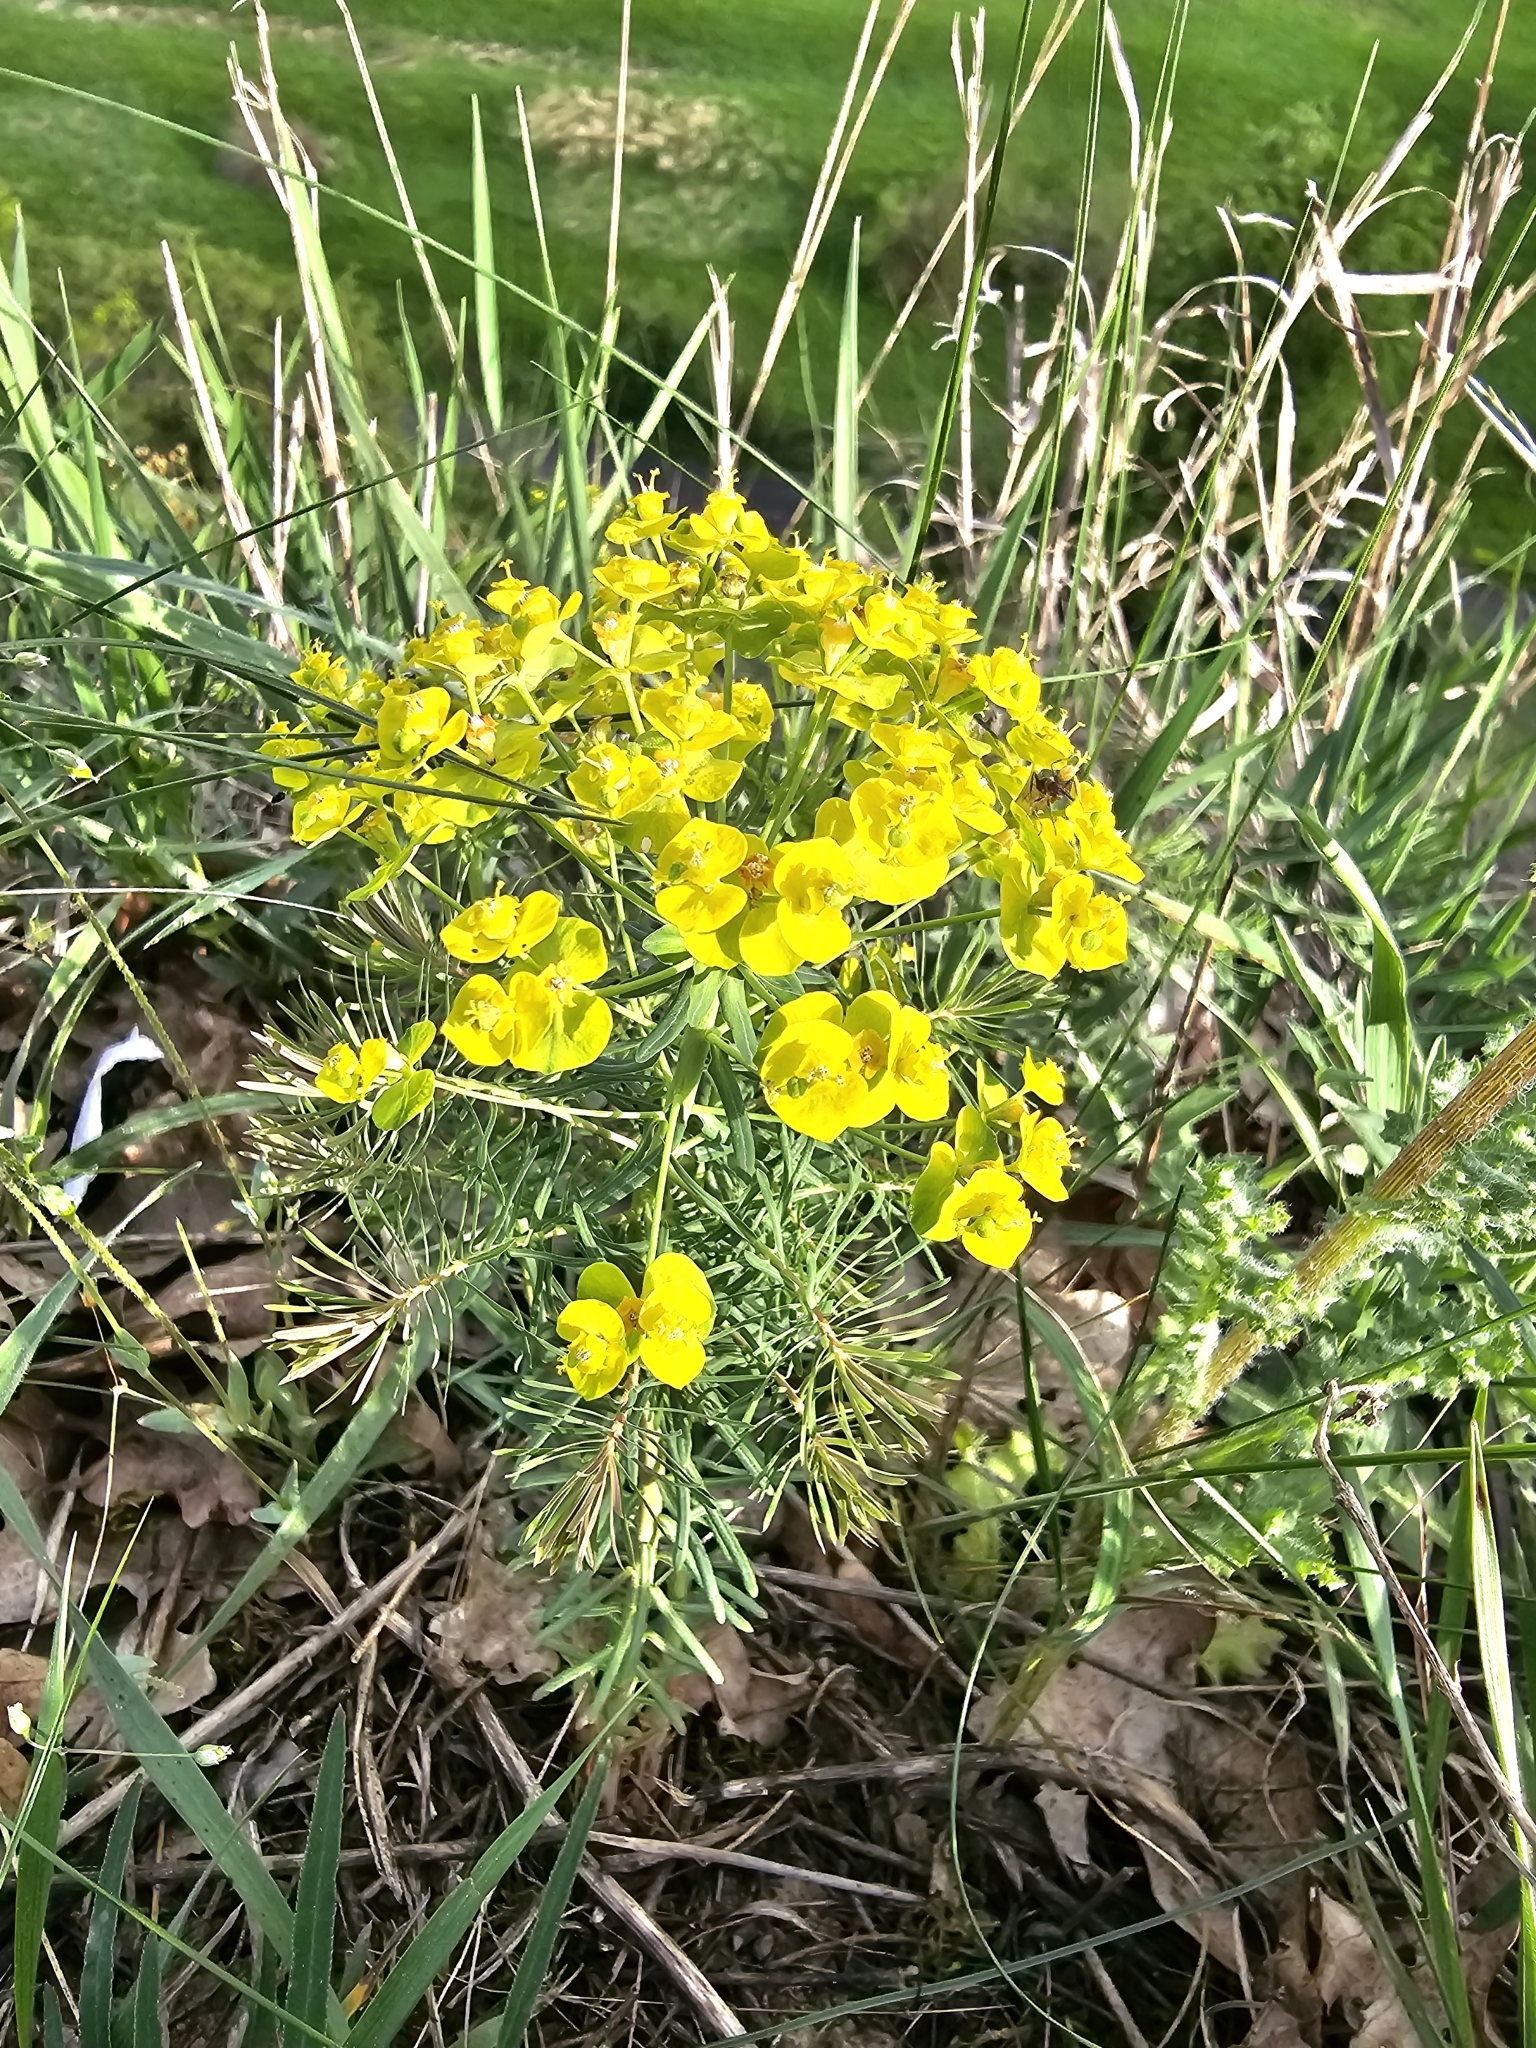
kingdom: Plantae
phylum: Tracheophyta
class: Magnoliopsida
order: Malpighiales
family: Euphorbiaceae
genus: Euphorbia
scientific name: Euphorbia cyparissias
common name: Cypress spurge
